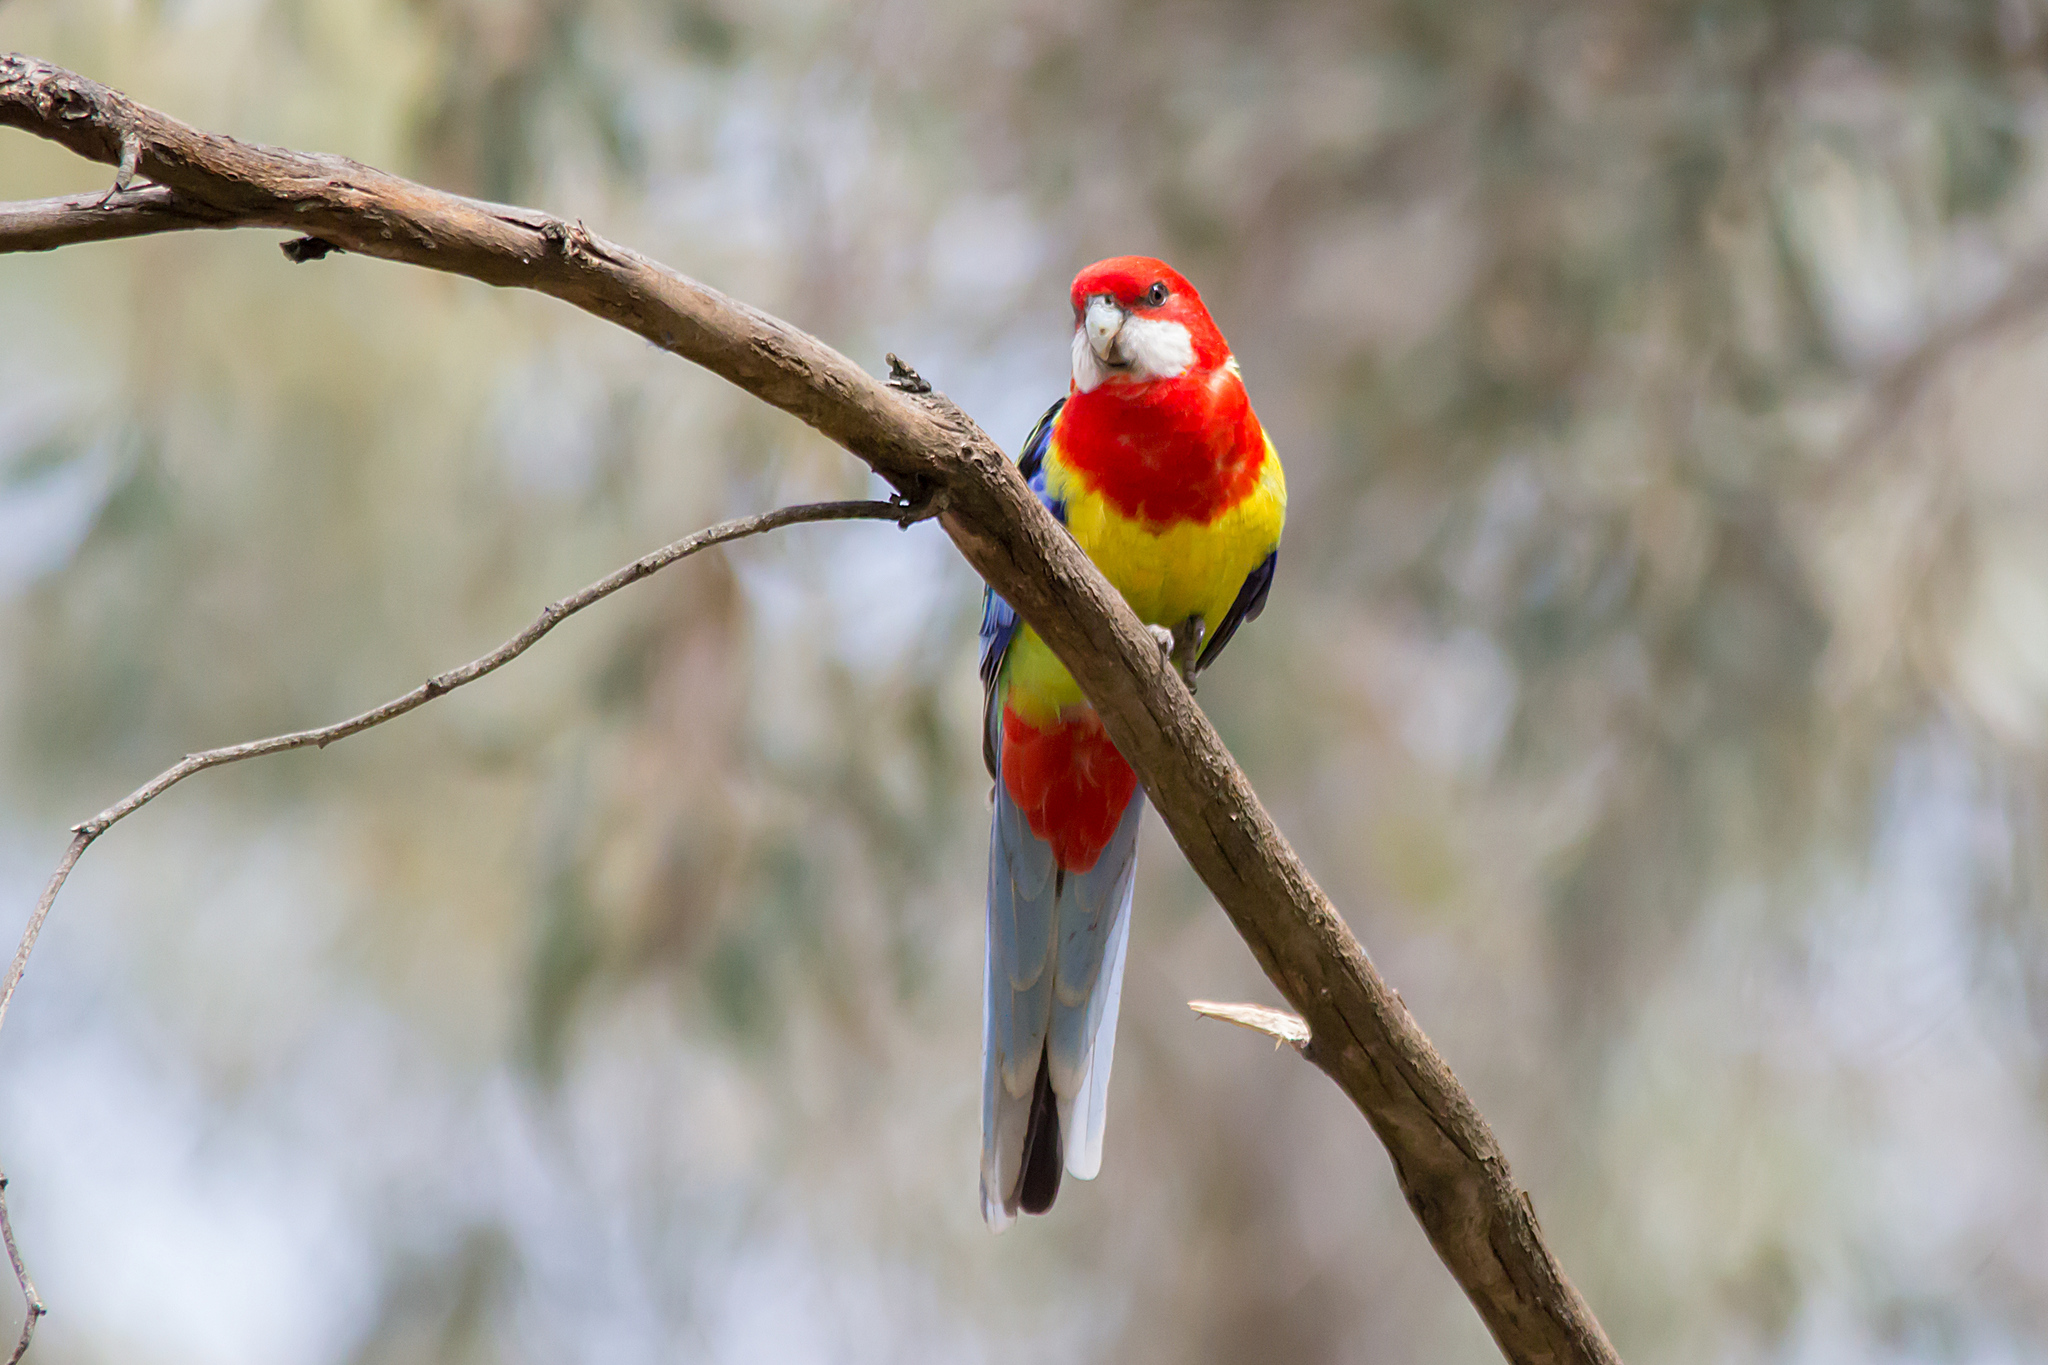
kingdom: Animalia
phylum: Chordata
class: Aves
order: Psittaciformes
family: Psittacidae
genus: Platycercus
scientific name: Platycercus eximius
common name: Eastern rosella
